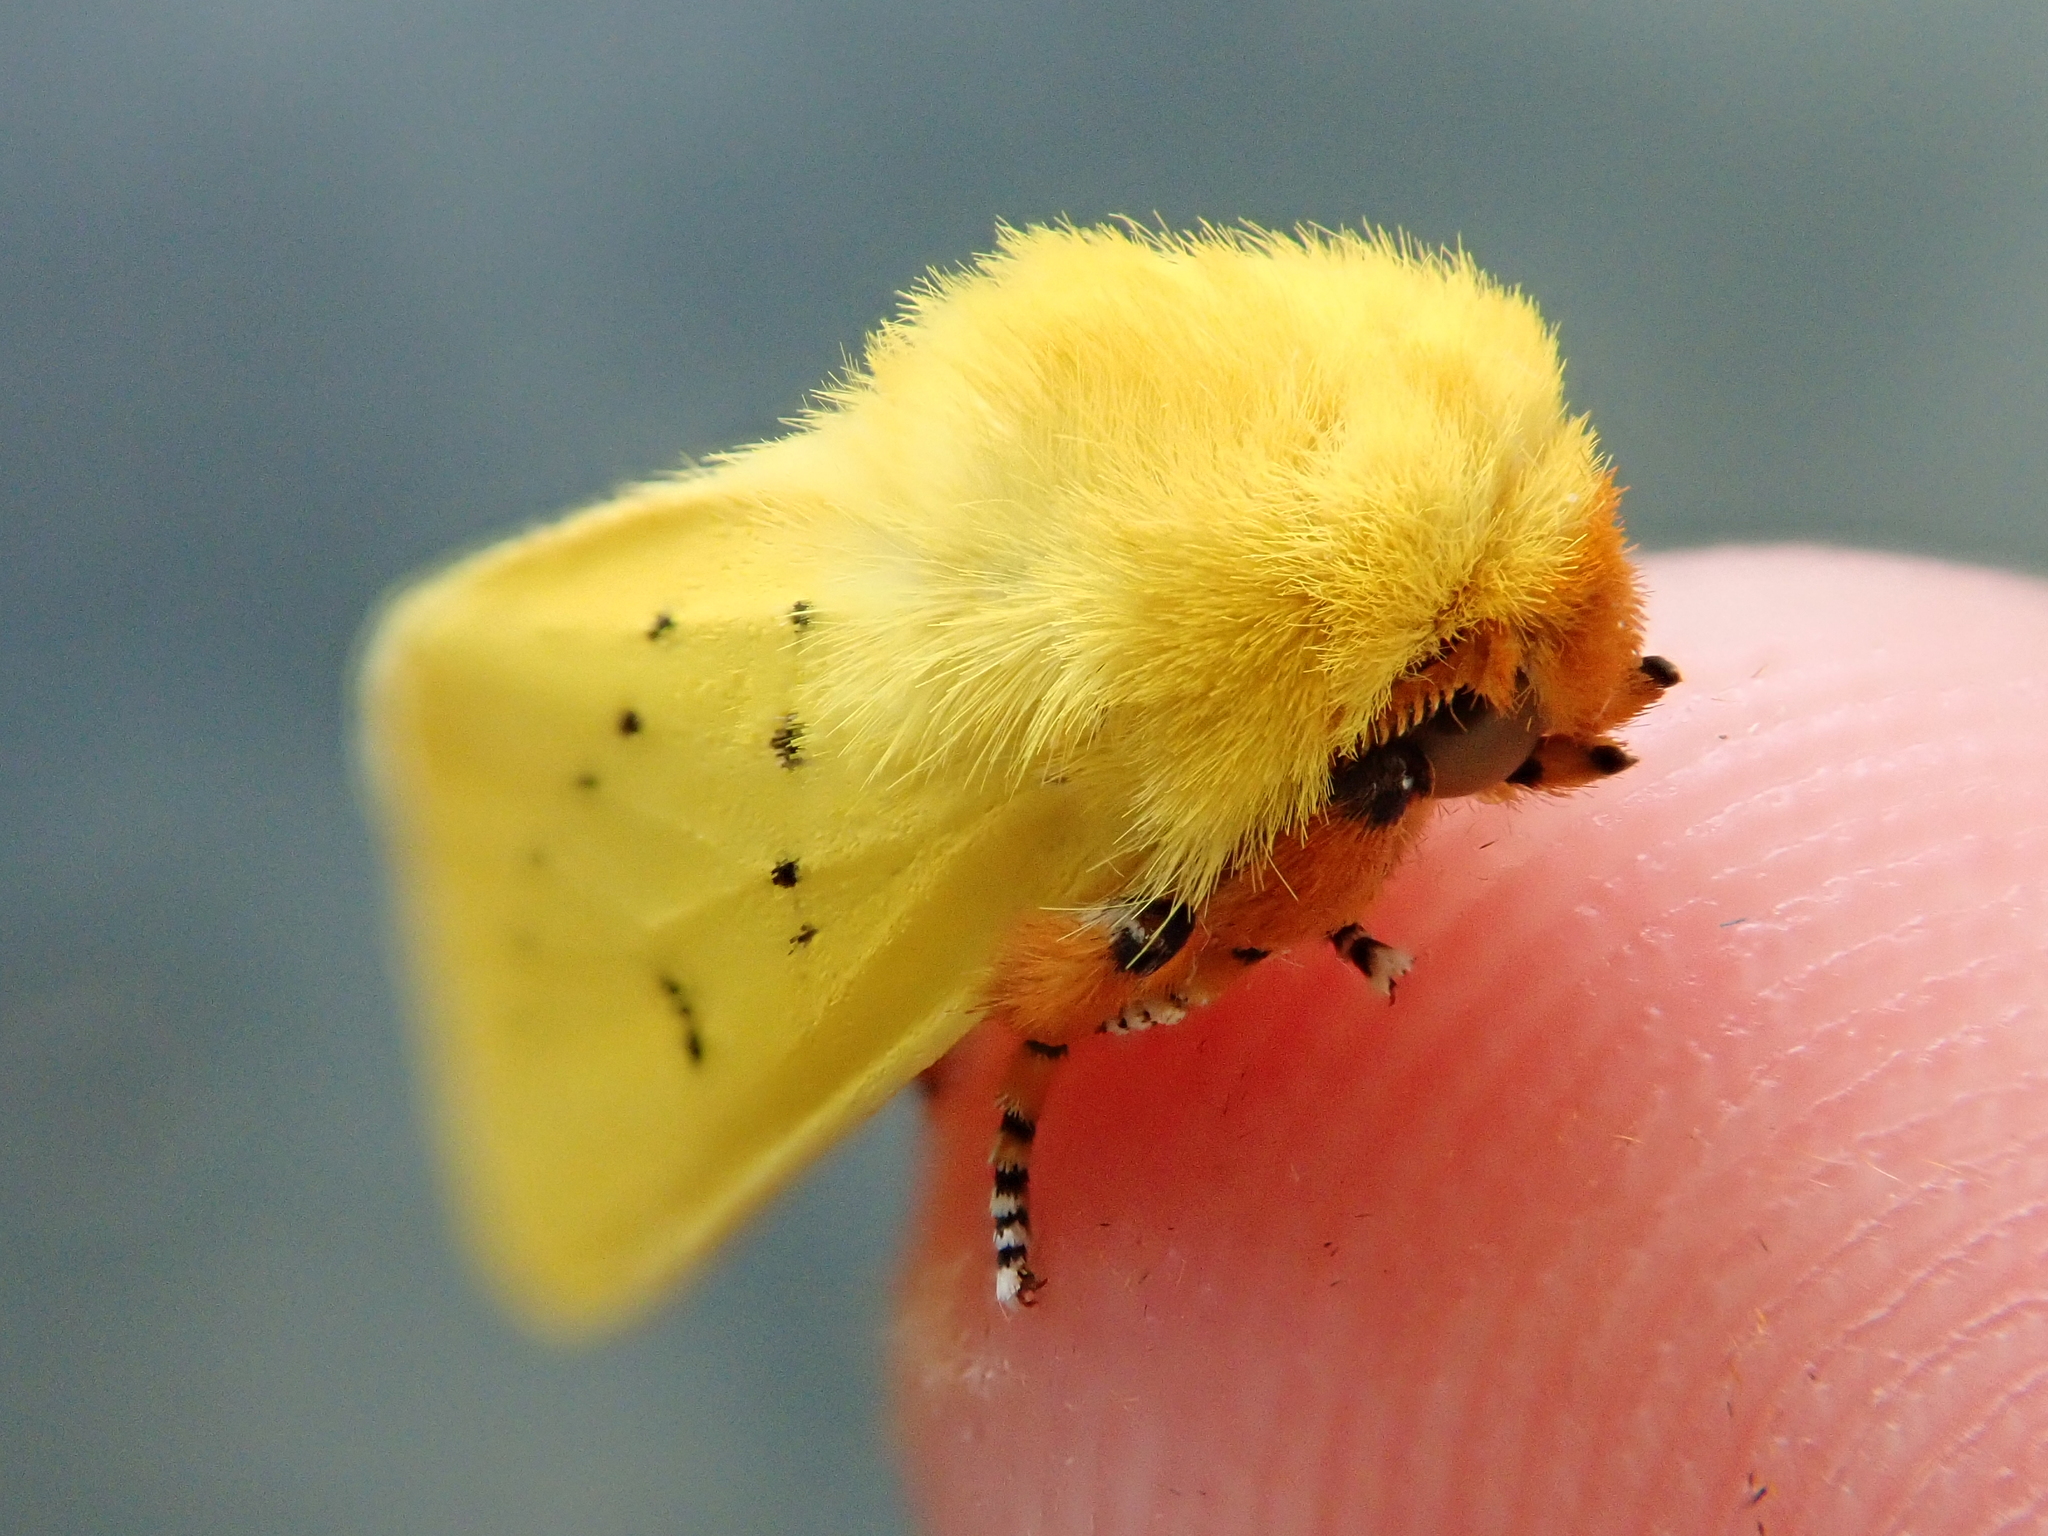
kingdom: Animalia
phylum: Arthropoda
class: Insecta
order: Lepidoptera
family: Erebidae
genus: Pseudalus
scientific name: Pseudalus limonia
